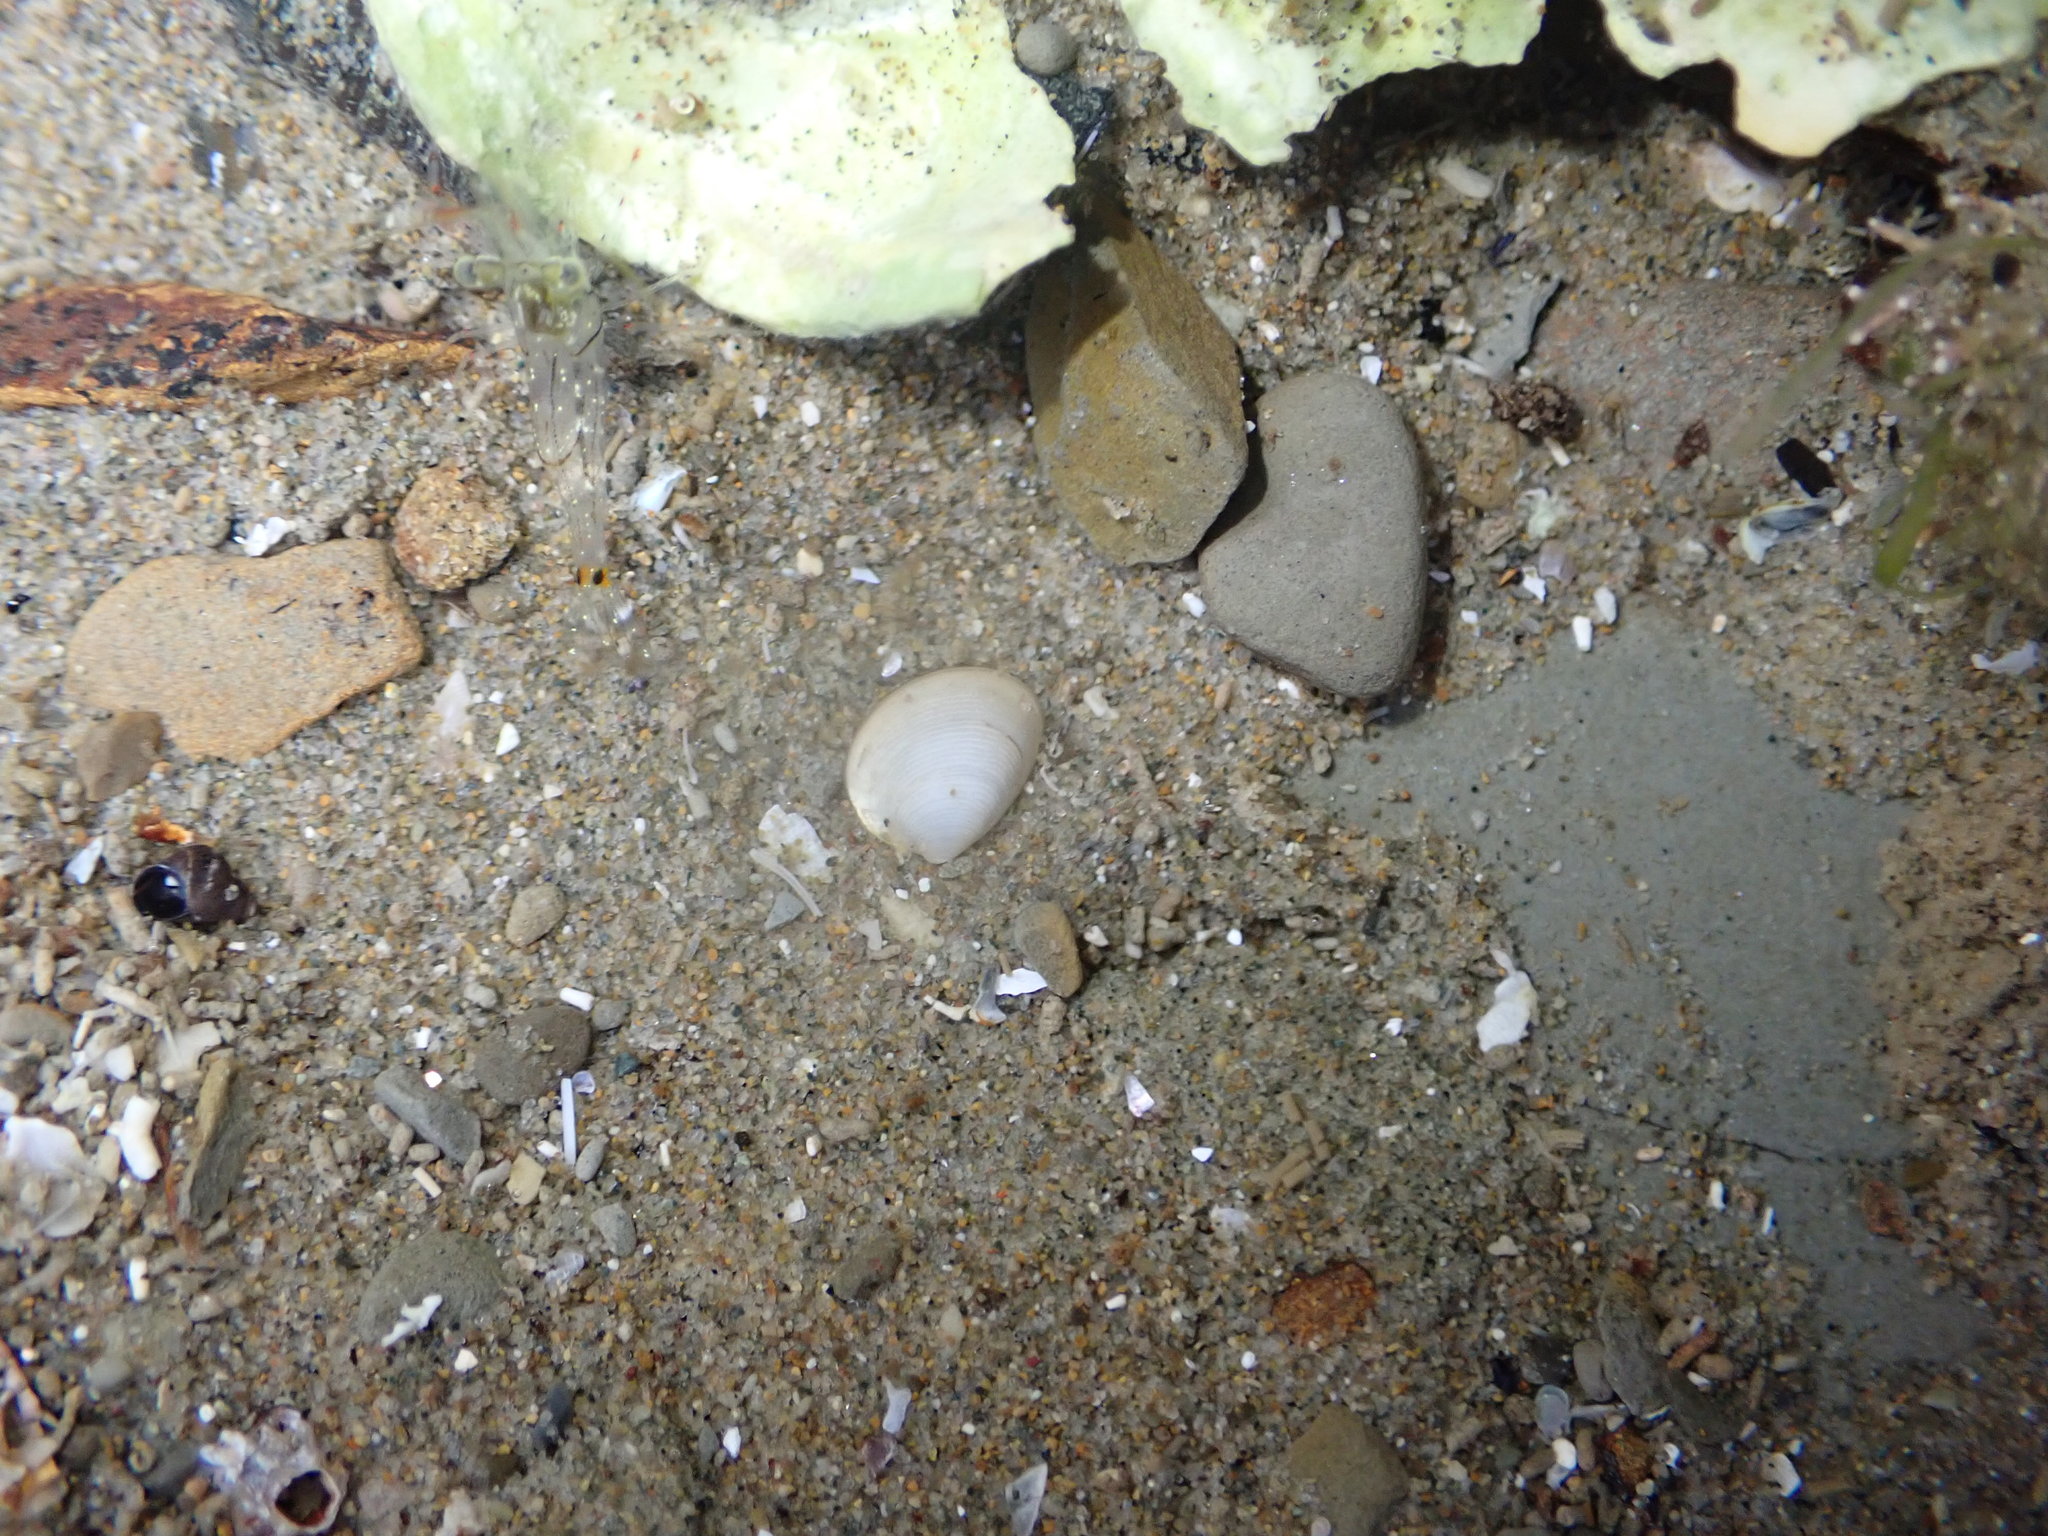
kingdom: Animalia
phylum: Mollusca
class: Bivalvia
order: Nuculida
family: Nuculidae
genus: Linucula
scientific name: Linucula hartvigiana
